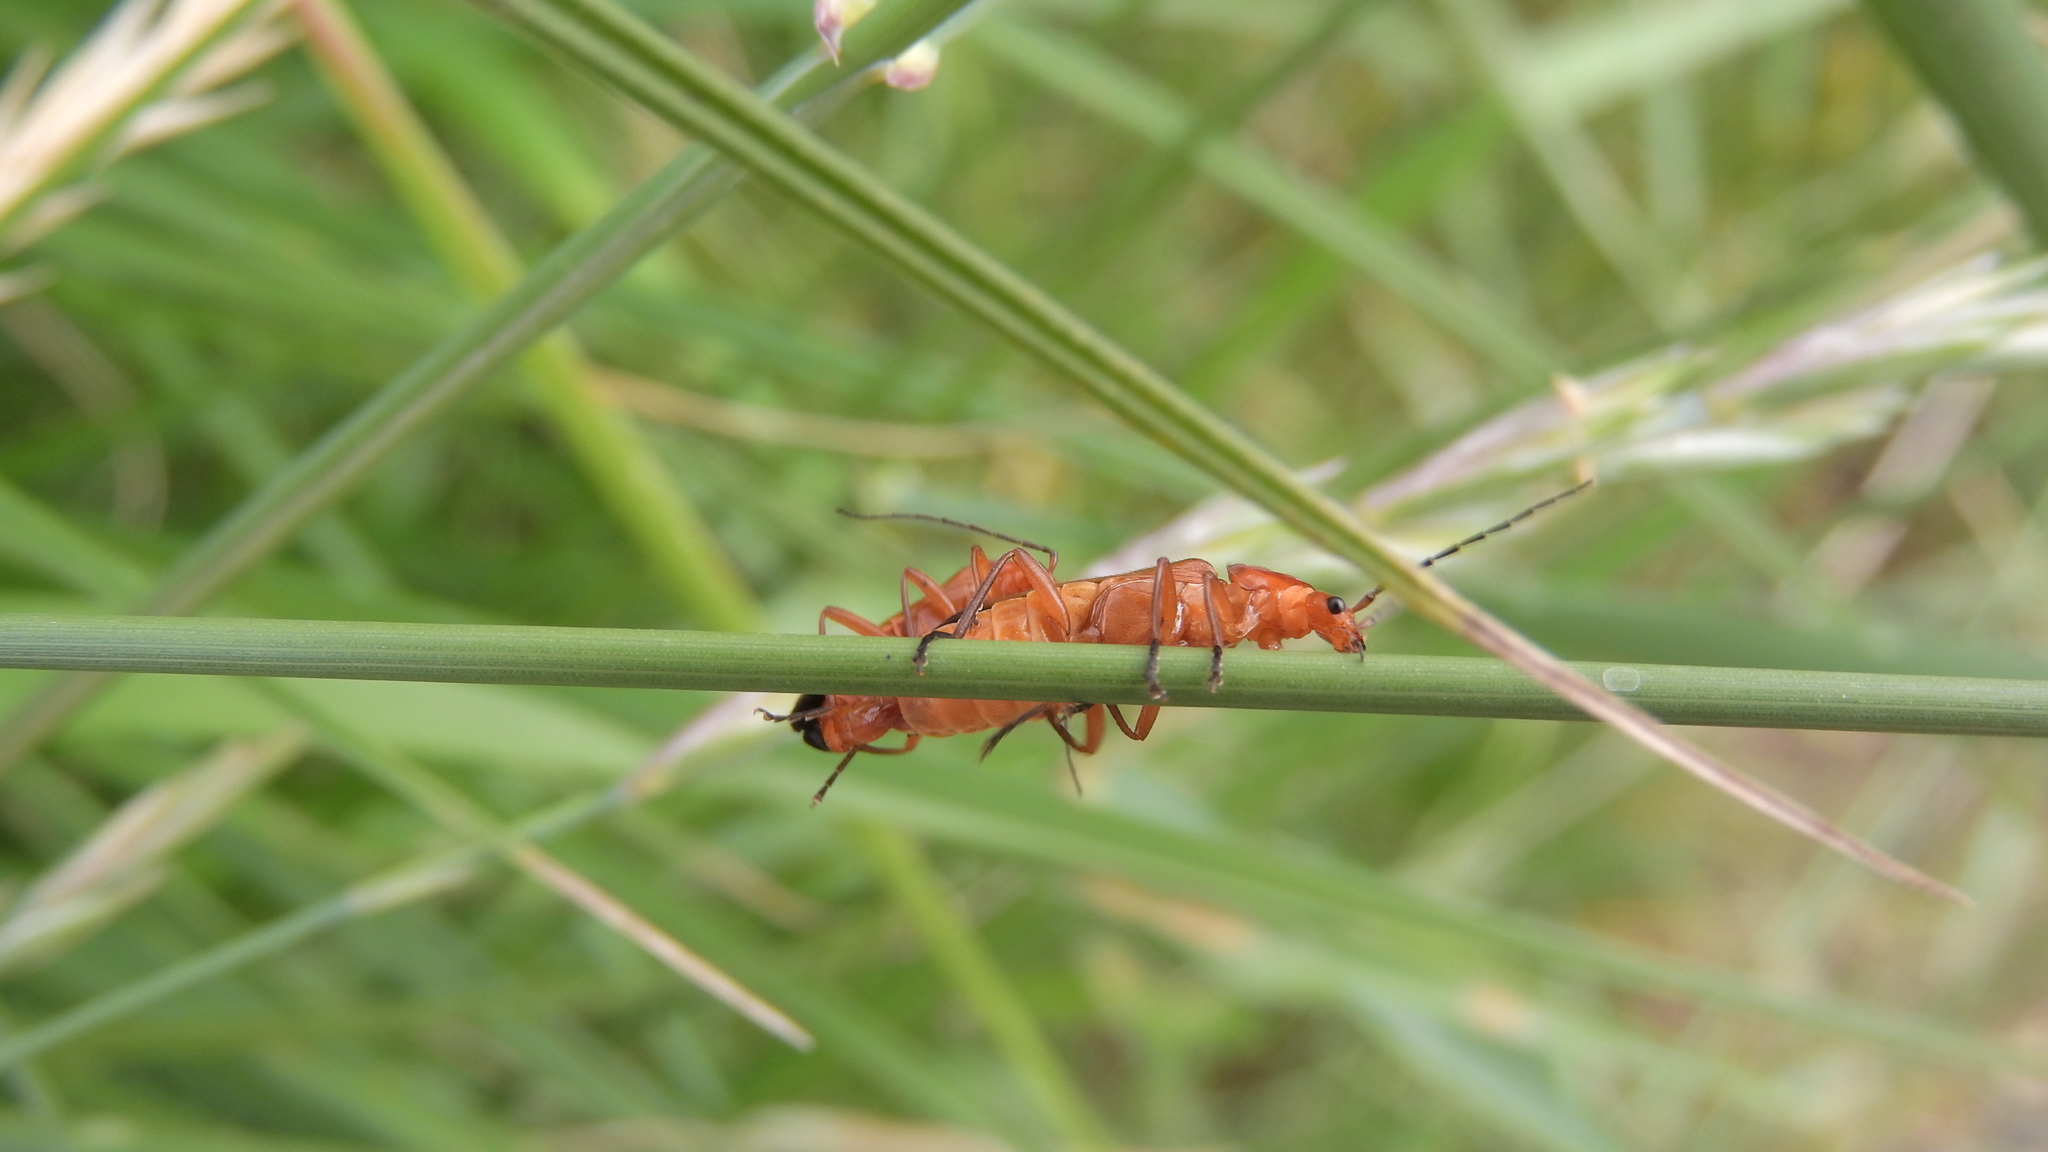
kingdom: Animalia
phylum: Arthropoda
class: Insecta
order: Coleoptera
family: Cantharidae
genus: Rhagonycha
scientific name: Rhagonycha fulva
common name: Common red soldier beetle
